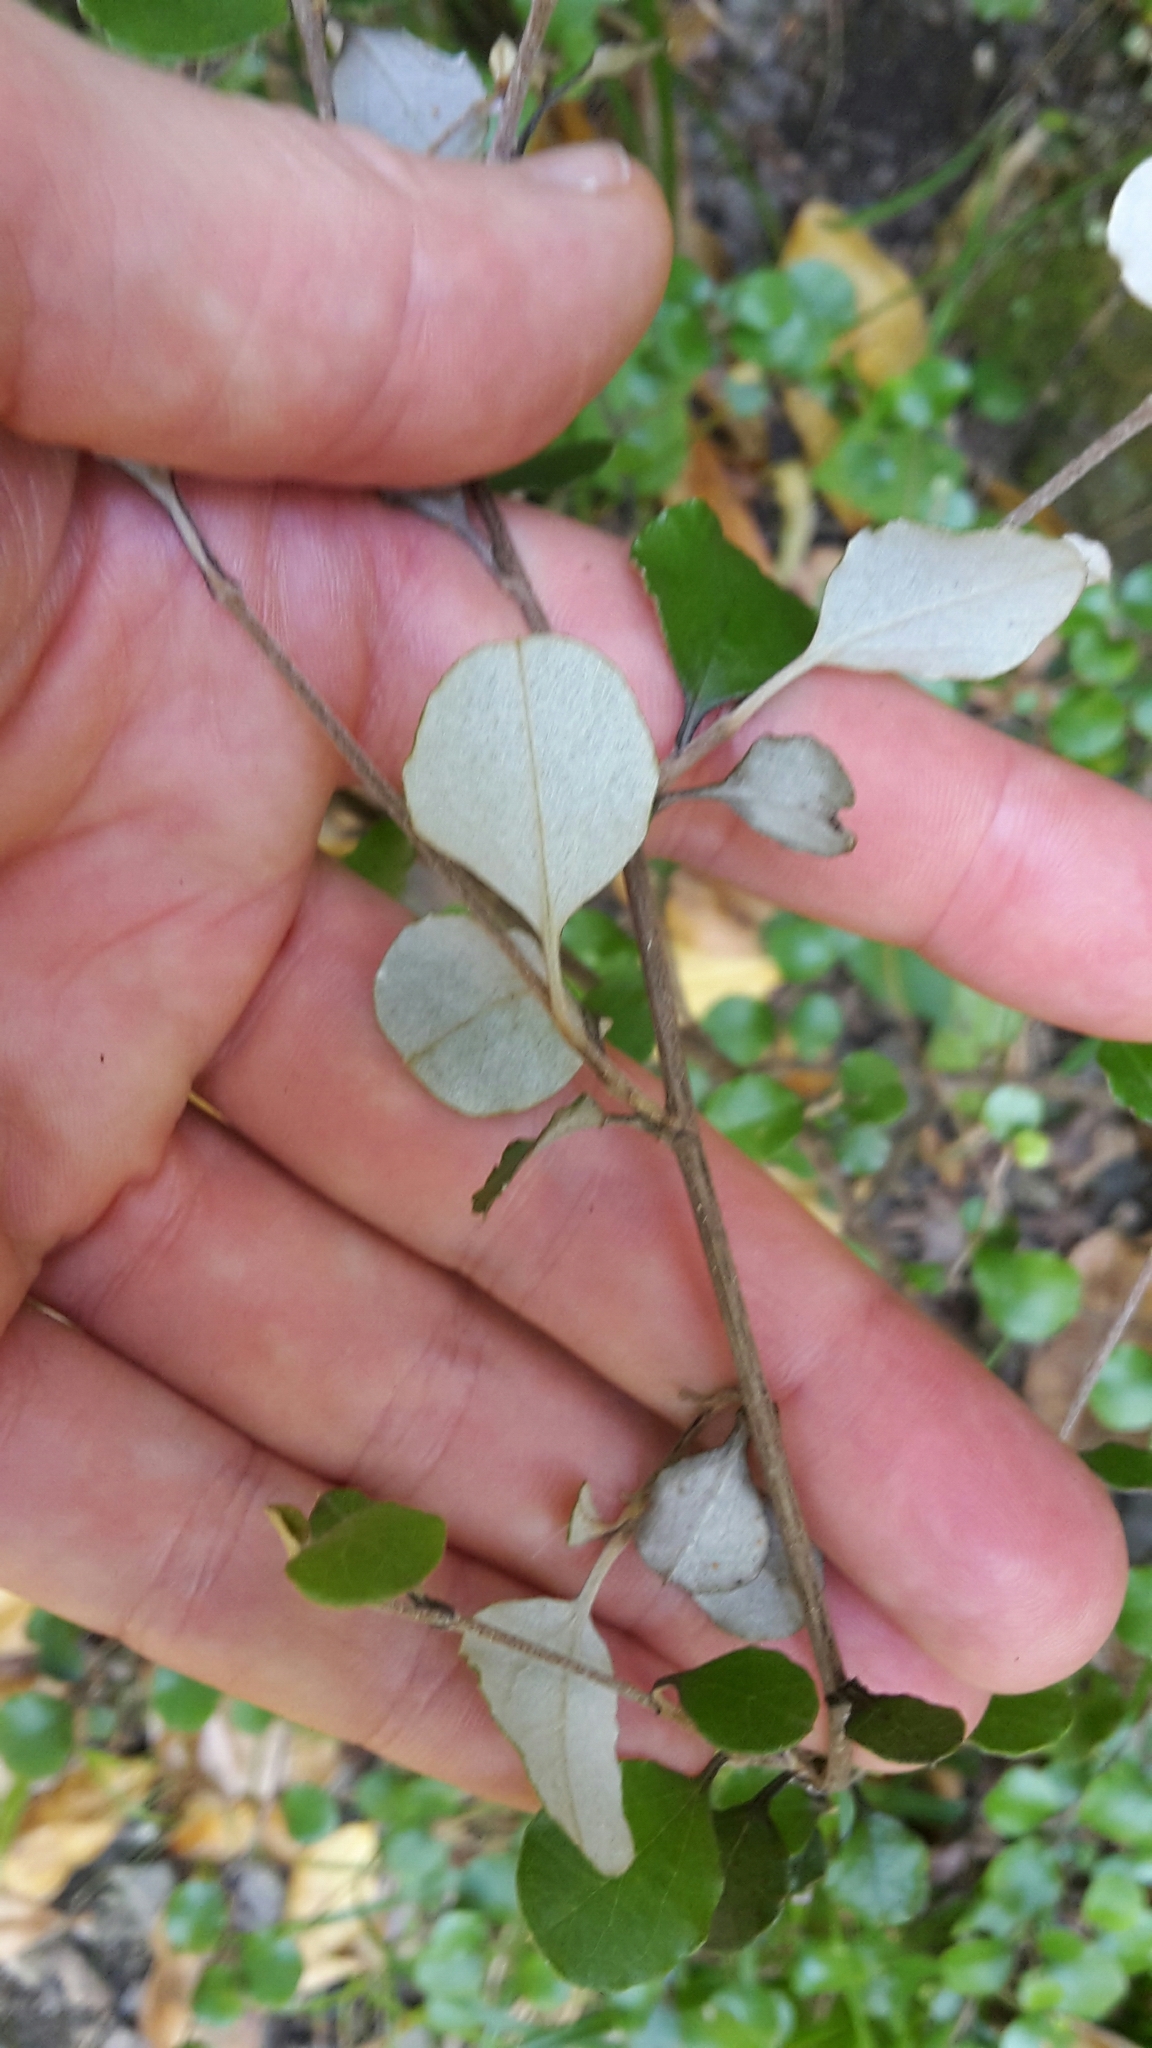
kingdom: Plantae
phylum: Tracheophyta
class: Magnoliopsida
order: Asterales
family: Asteraceae
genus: Ozothamnus
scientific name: Ozothamnus glomeratus
